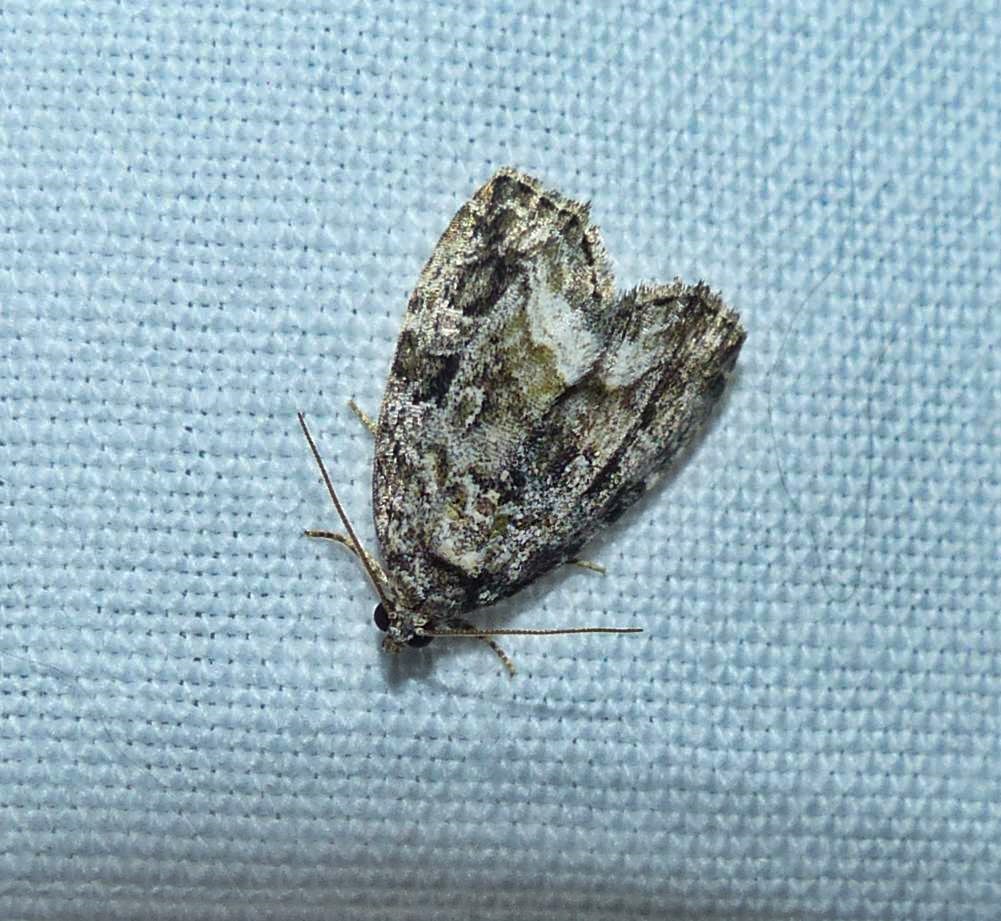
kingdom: Animalia
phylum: Arthropoda
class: Insecta
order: Lepidoptera
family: Noctuidae
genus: Protodeltote
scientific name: Protodeltote muscosula
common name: Large mossy glyph
